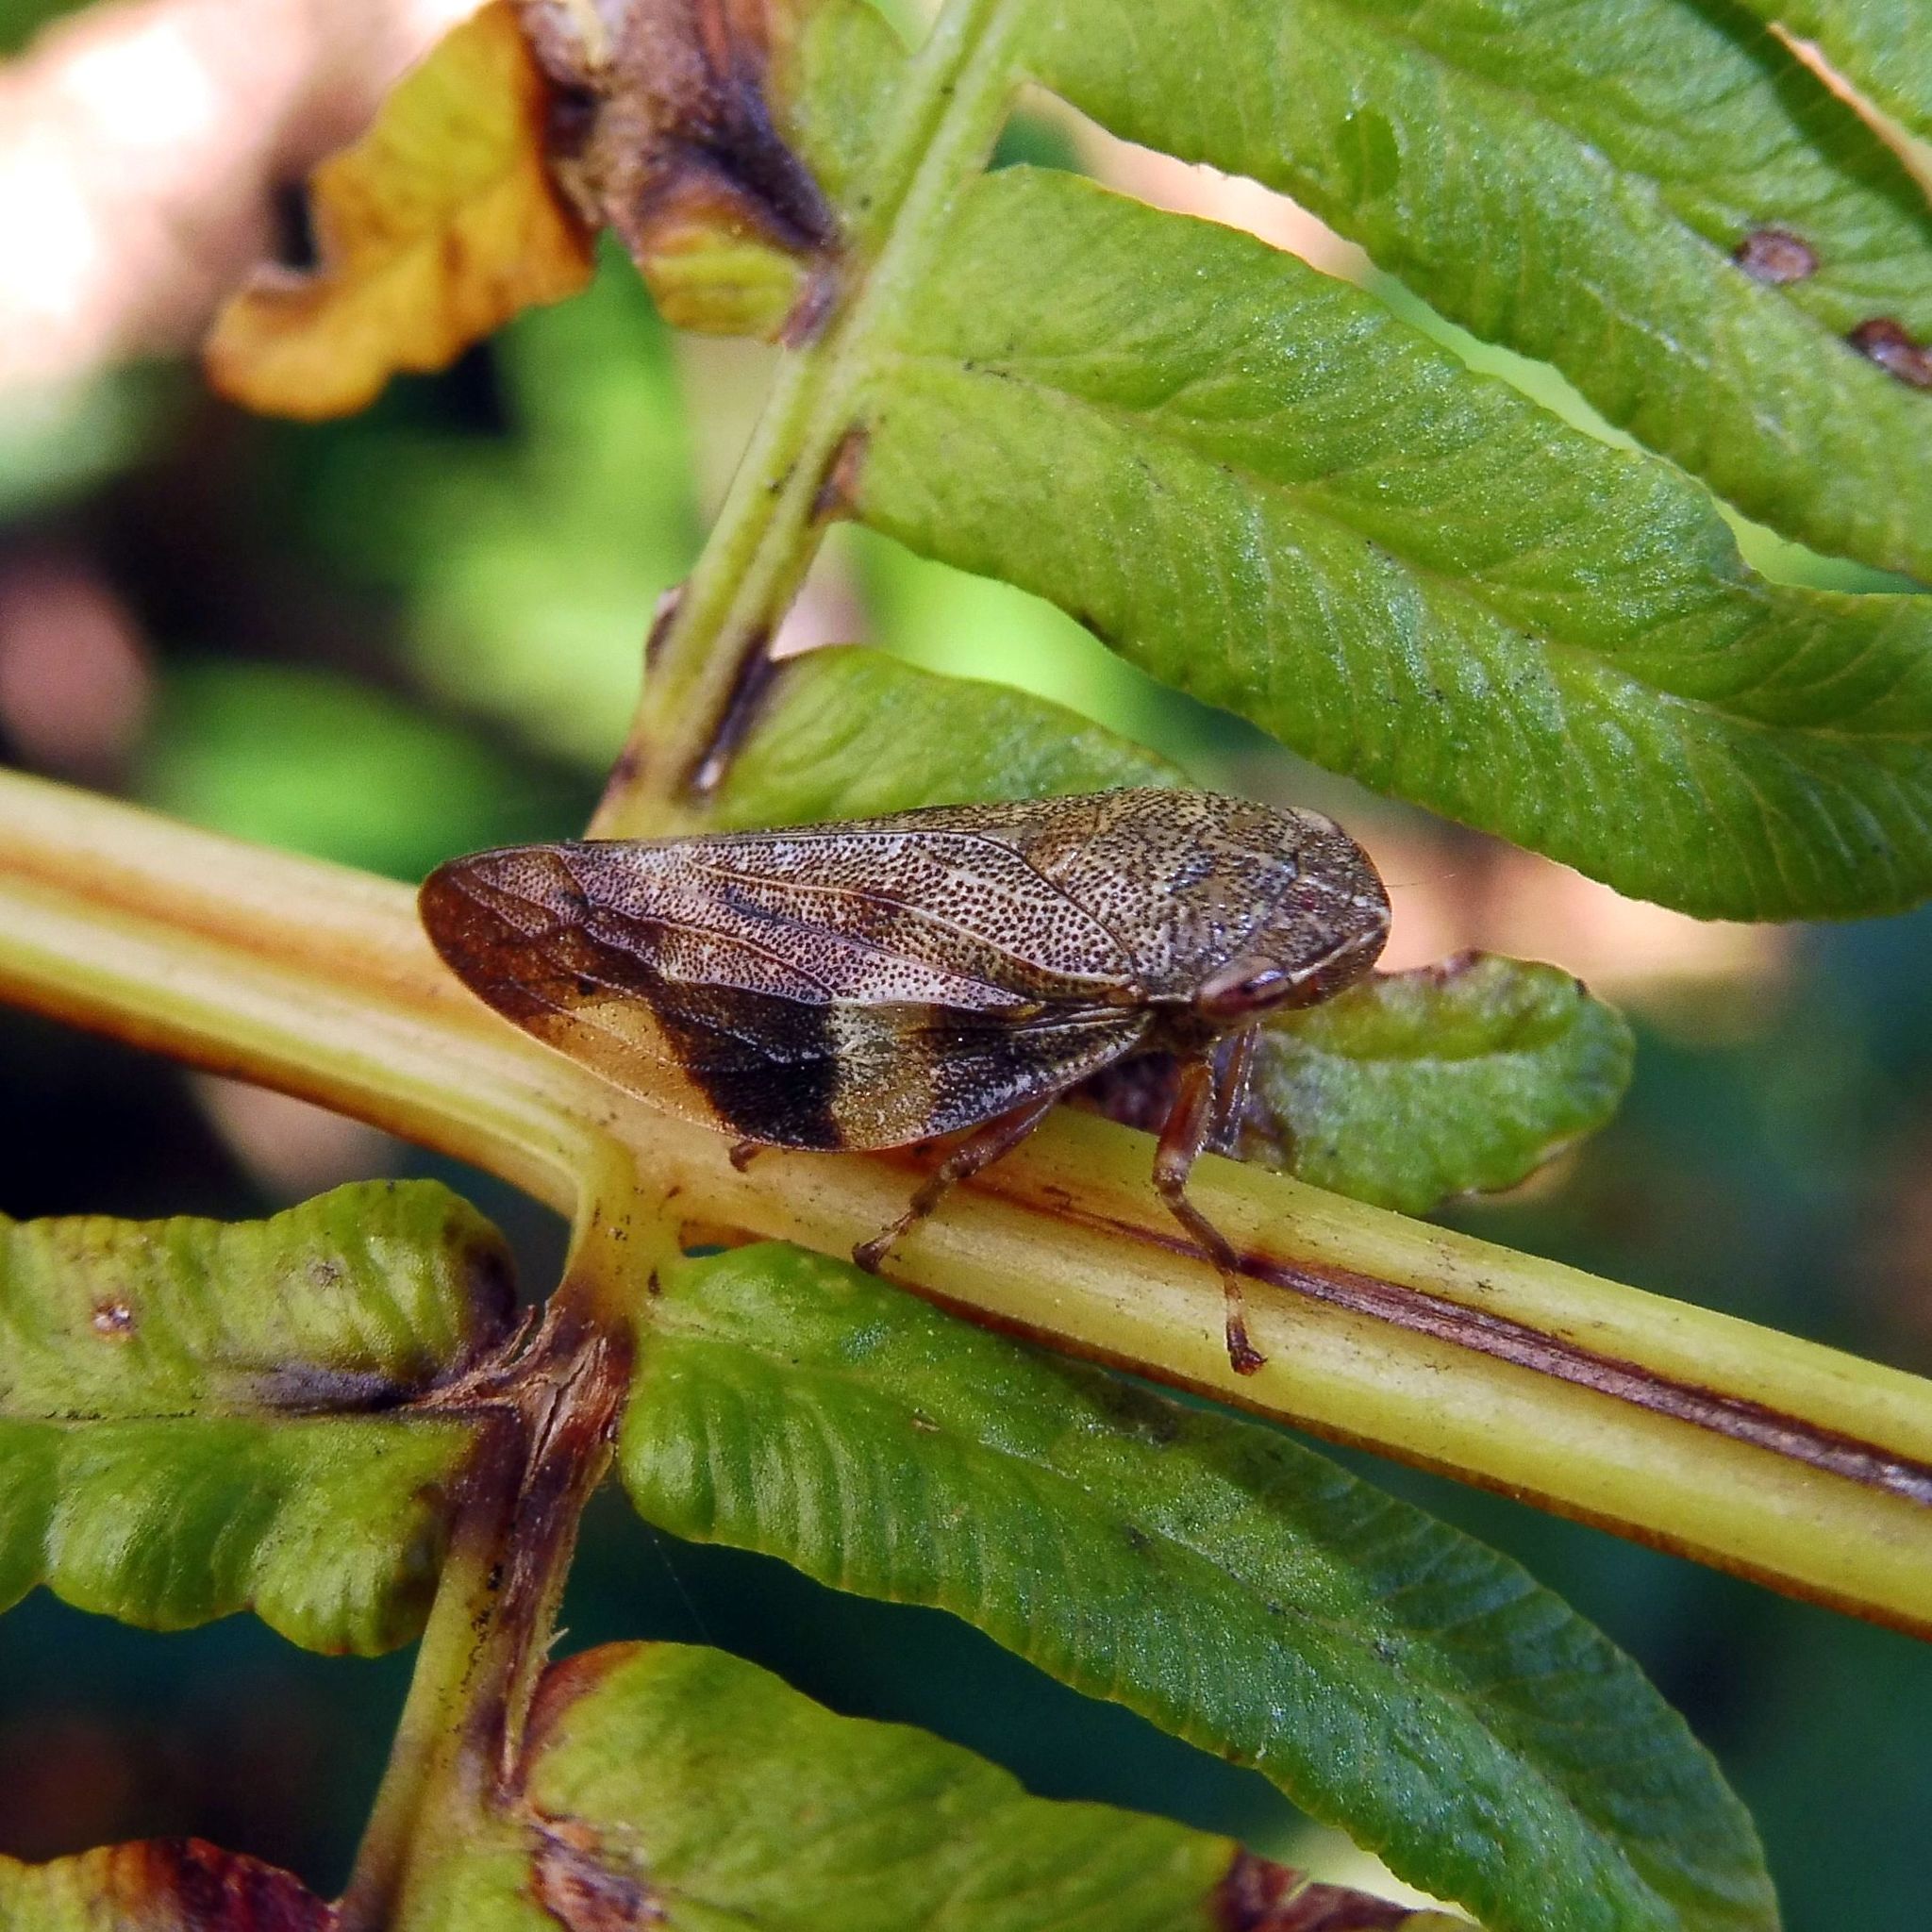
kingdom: Animalia
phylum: Arthropoda
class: Insecta
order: Hemiptera
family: Aphrophoridae
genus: Aphrophora
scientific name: Aphrophora alni
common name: European alder spittlebug
